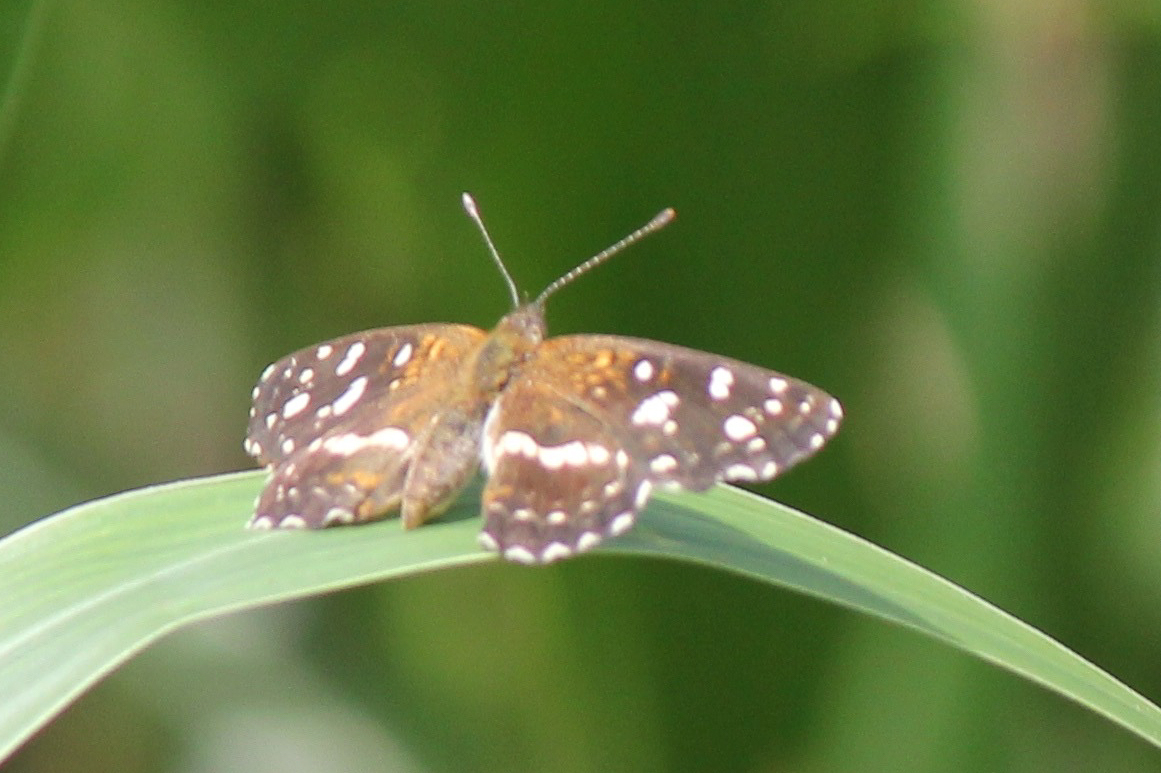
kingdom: Animalia
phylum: Arthropoda
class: Insecta
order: Lepidoptera
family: Nymphalidae
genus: Ortilia
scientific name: Ortilia ithra
